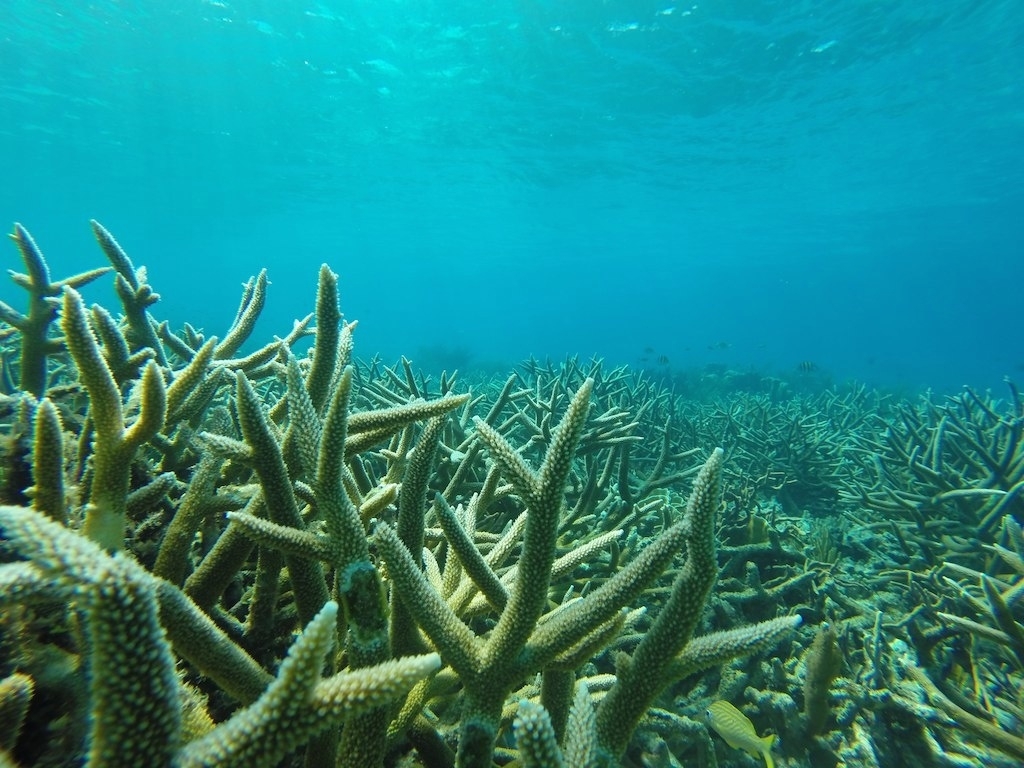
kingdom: Animalia
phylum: Cnidaria
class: Anthozoa
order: Scleractinia
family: Acroporidae
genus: Acropora
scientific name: Acropora cervicornis
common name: Staghorn coral
